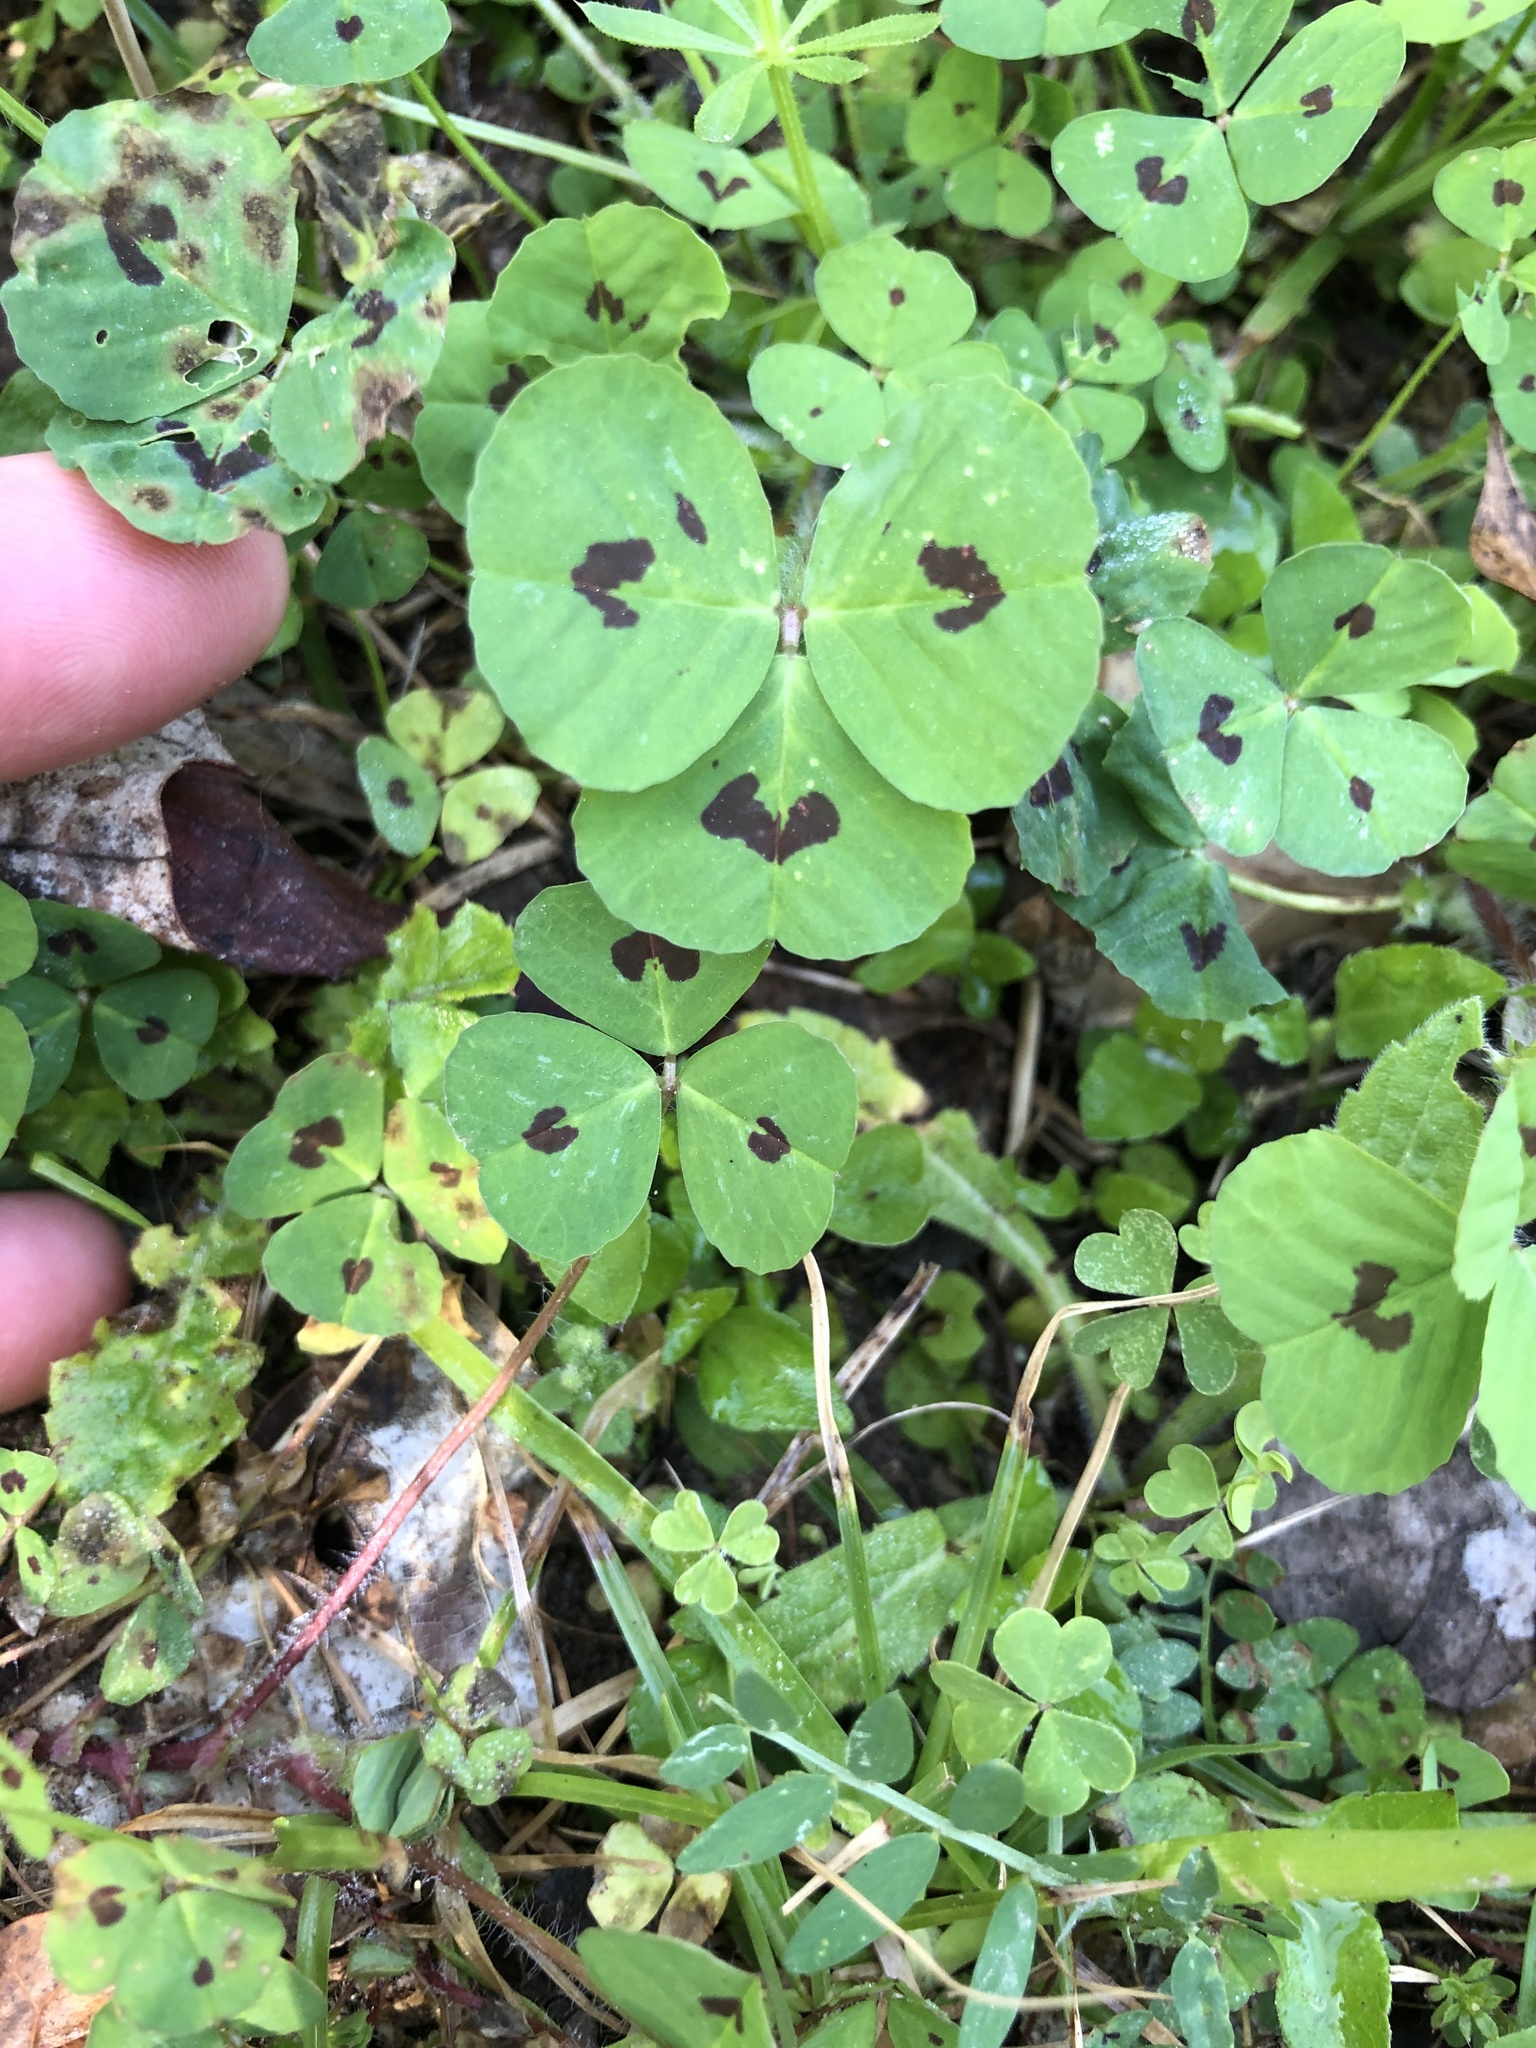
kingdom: Plantae
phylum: Tracheophyta
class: Magnoliopsida
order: Fabales
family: Fabaceae
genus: Medicago
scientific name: Medicago arabica
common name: Spotted medick
